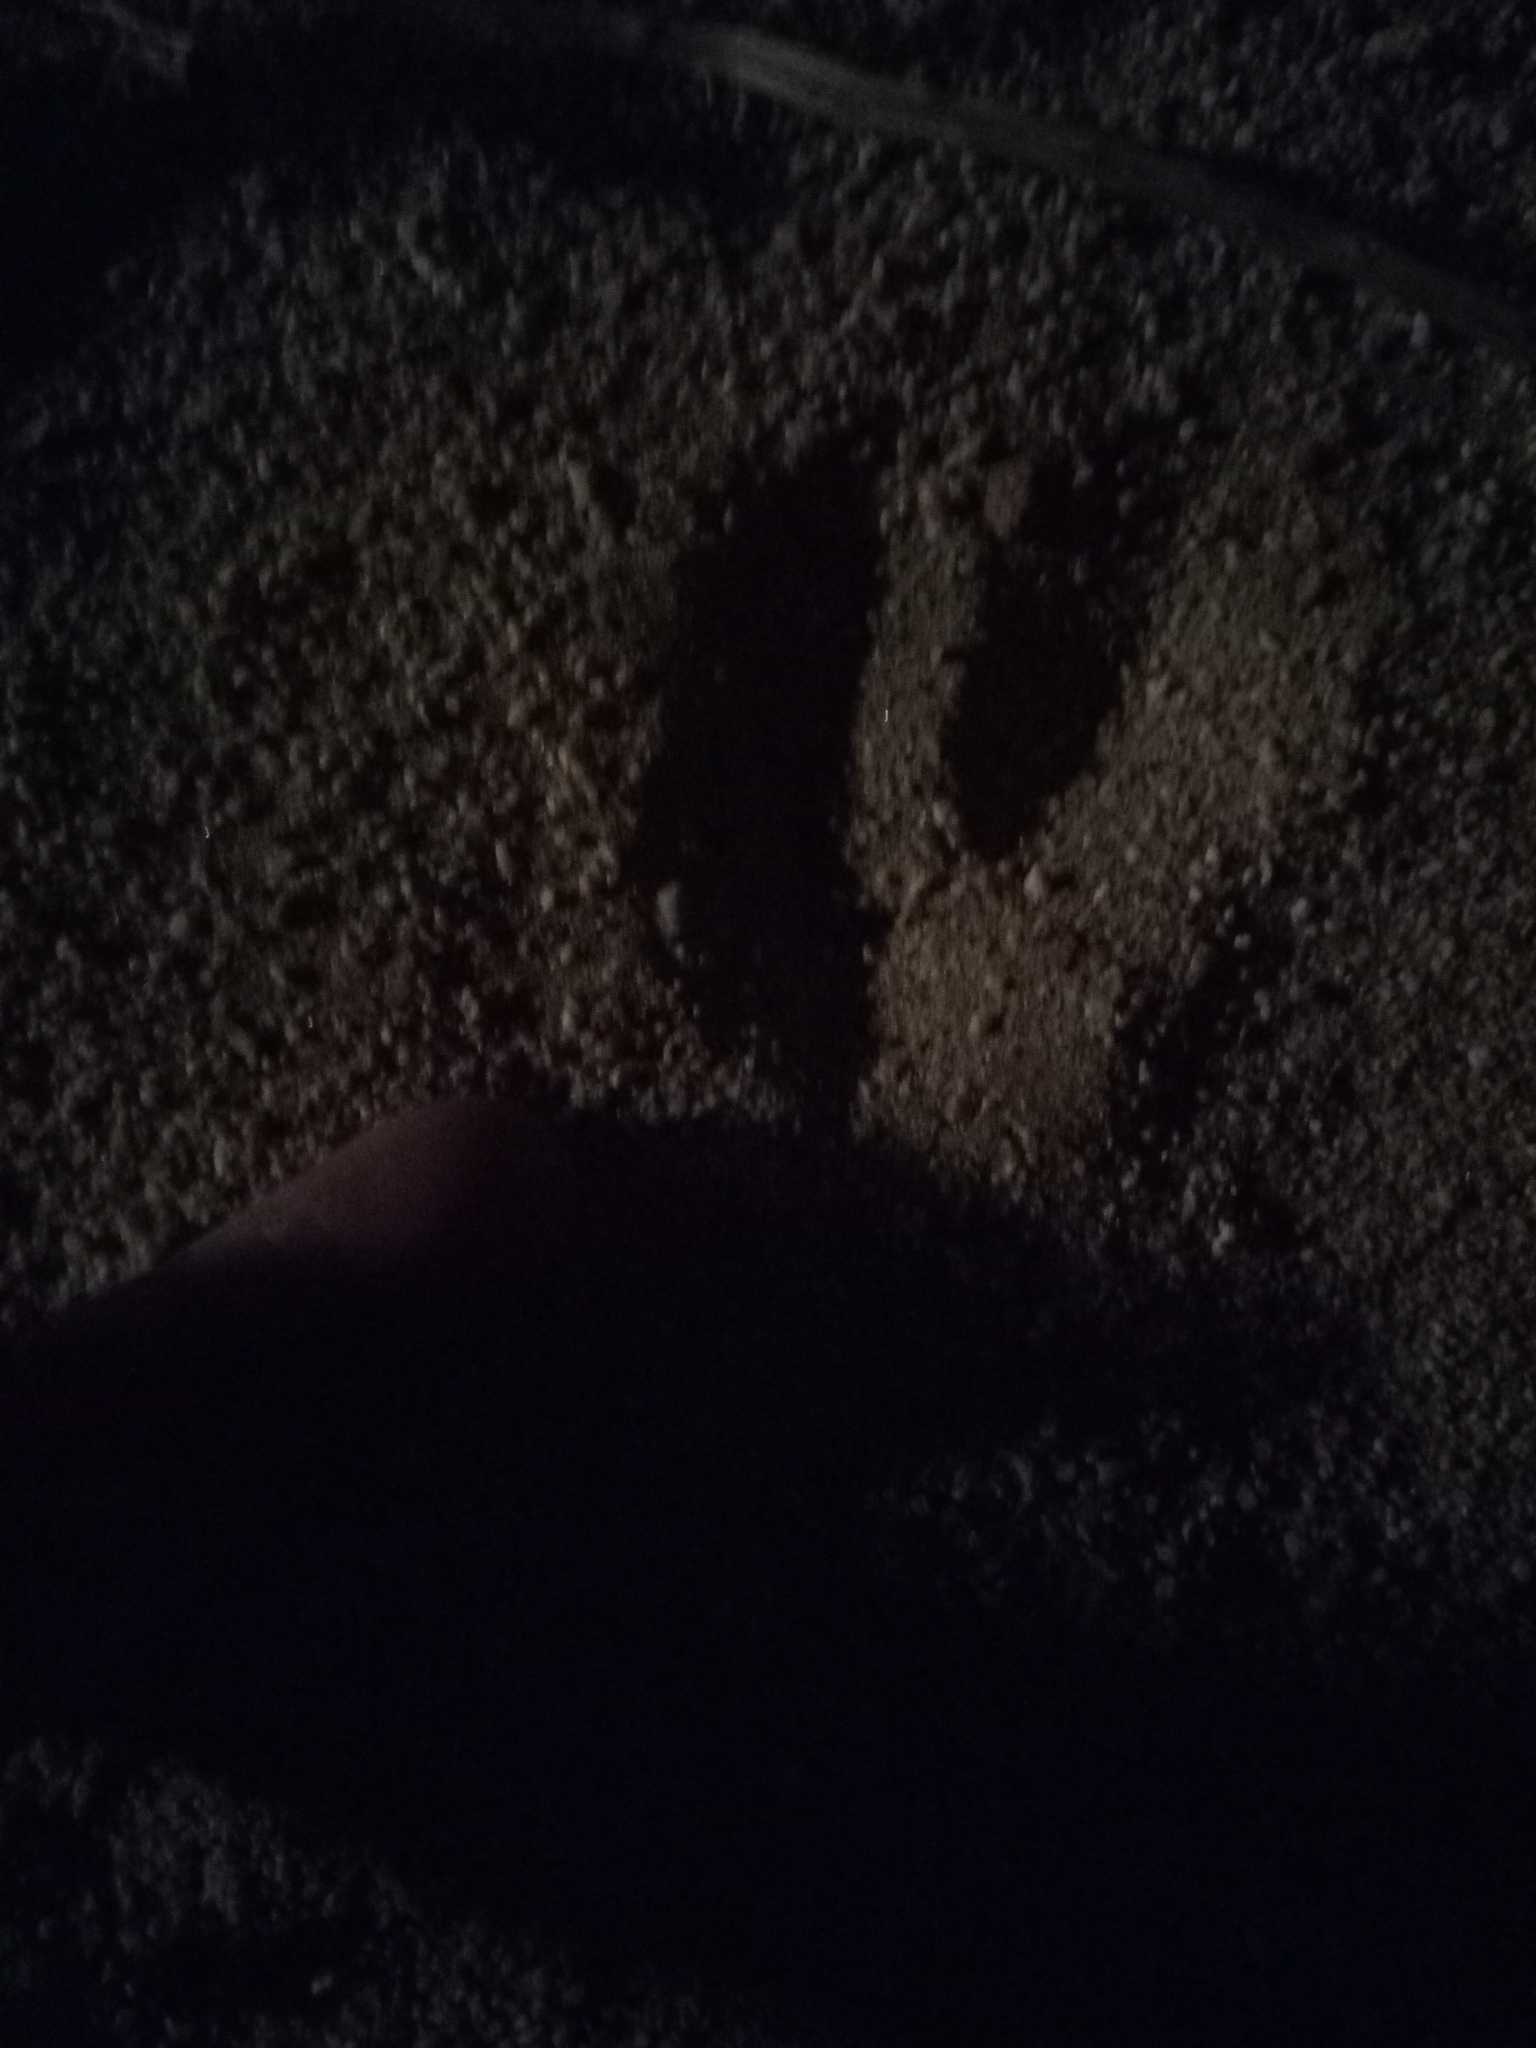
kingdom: Animalia
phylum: Chordata
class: Mammalia
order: Artiodactyla
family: Bovidae
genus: Gazella
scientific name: Gazella dorcas
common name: Dorcas gazelle
